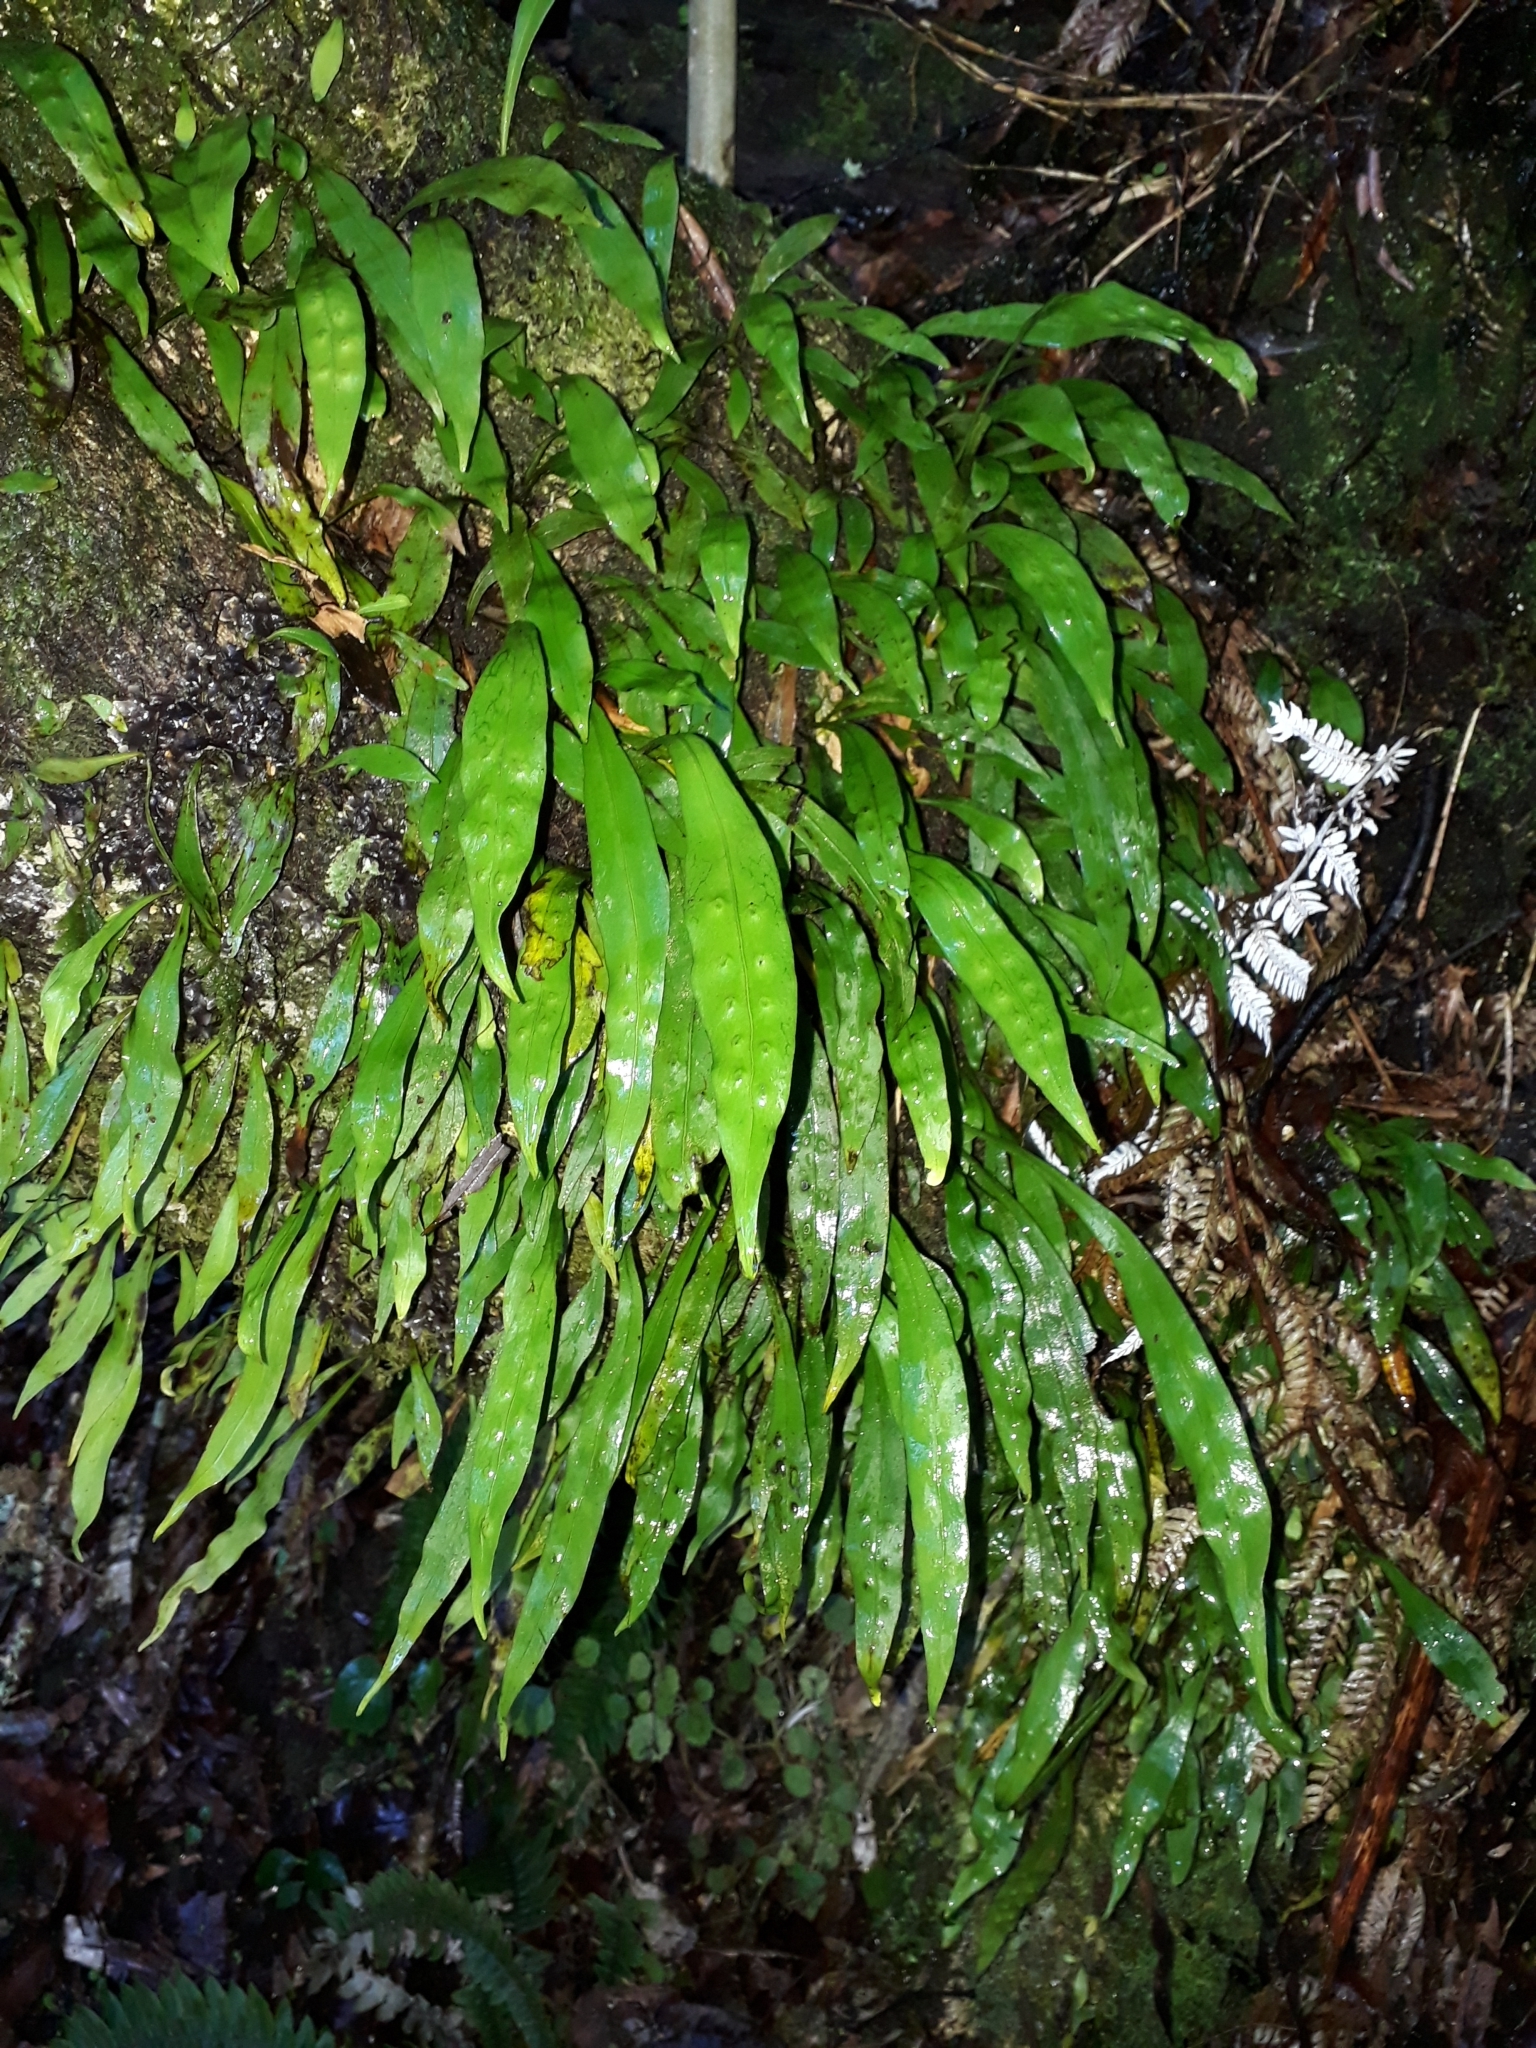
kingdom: Plantae
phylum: Tracheophyta
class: Polypodiopsida
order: Polypodiales
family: Polypodiaceae
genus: Loxogramme
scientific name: Loxogramme dictyopteris
